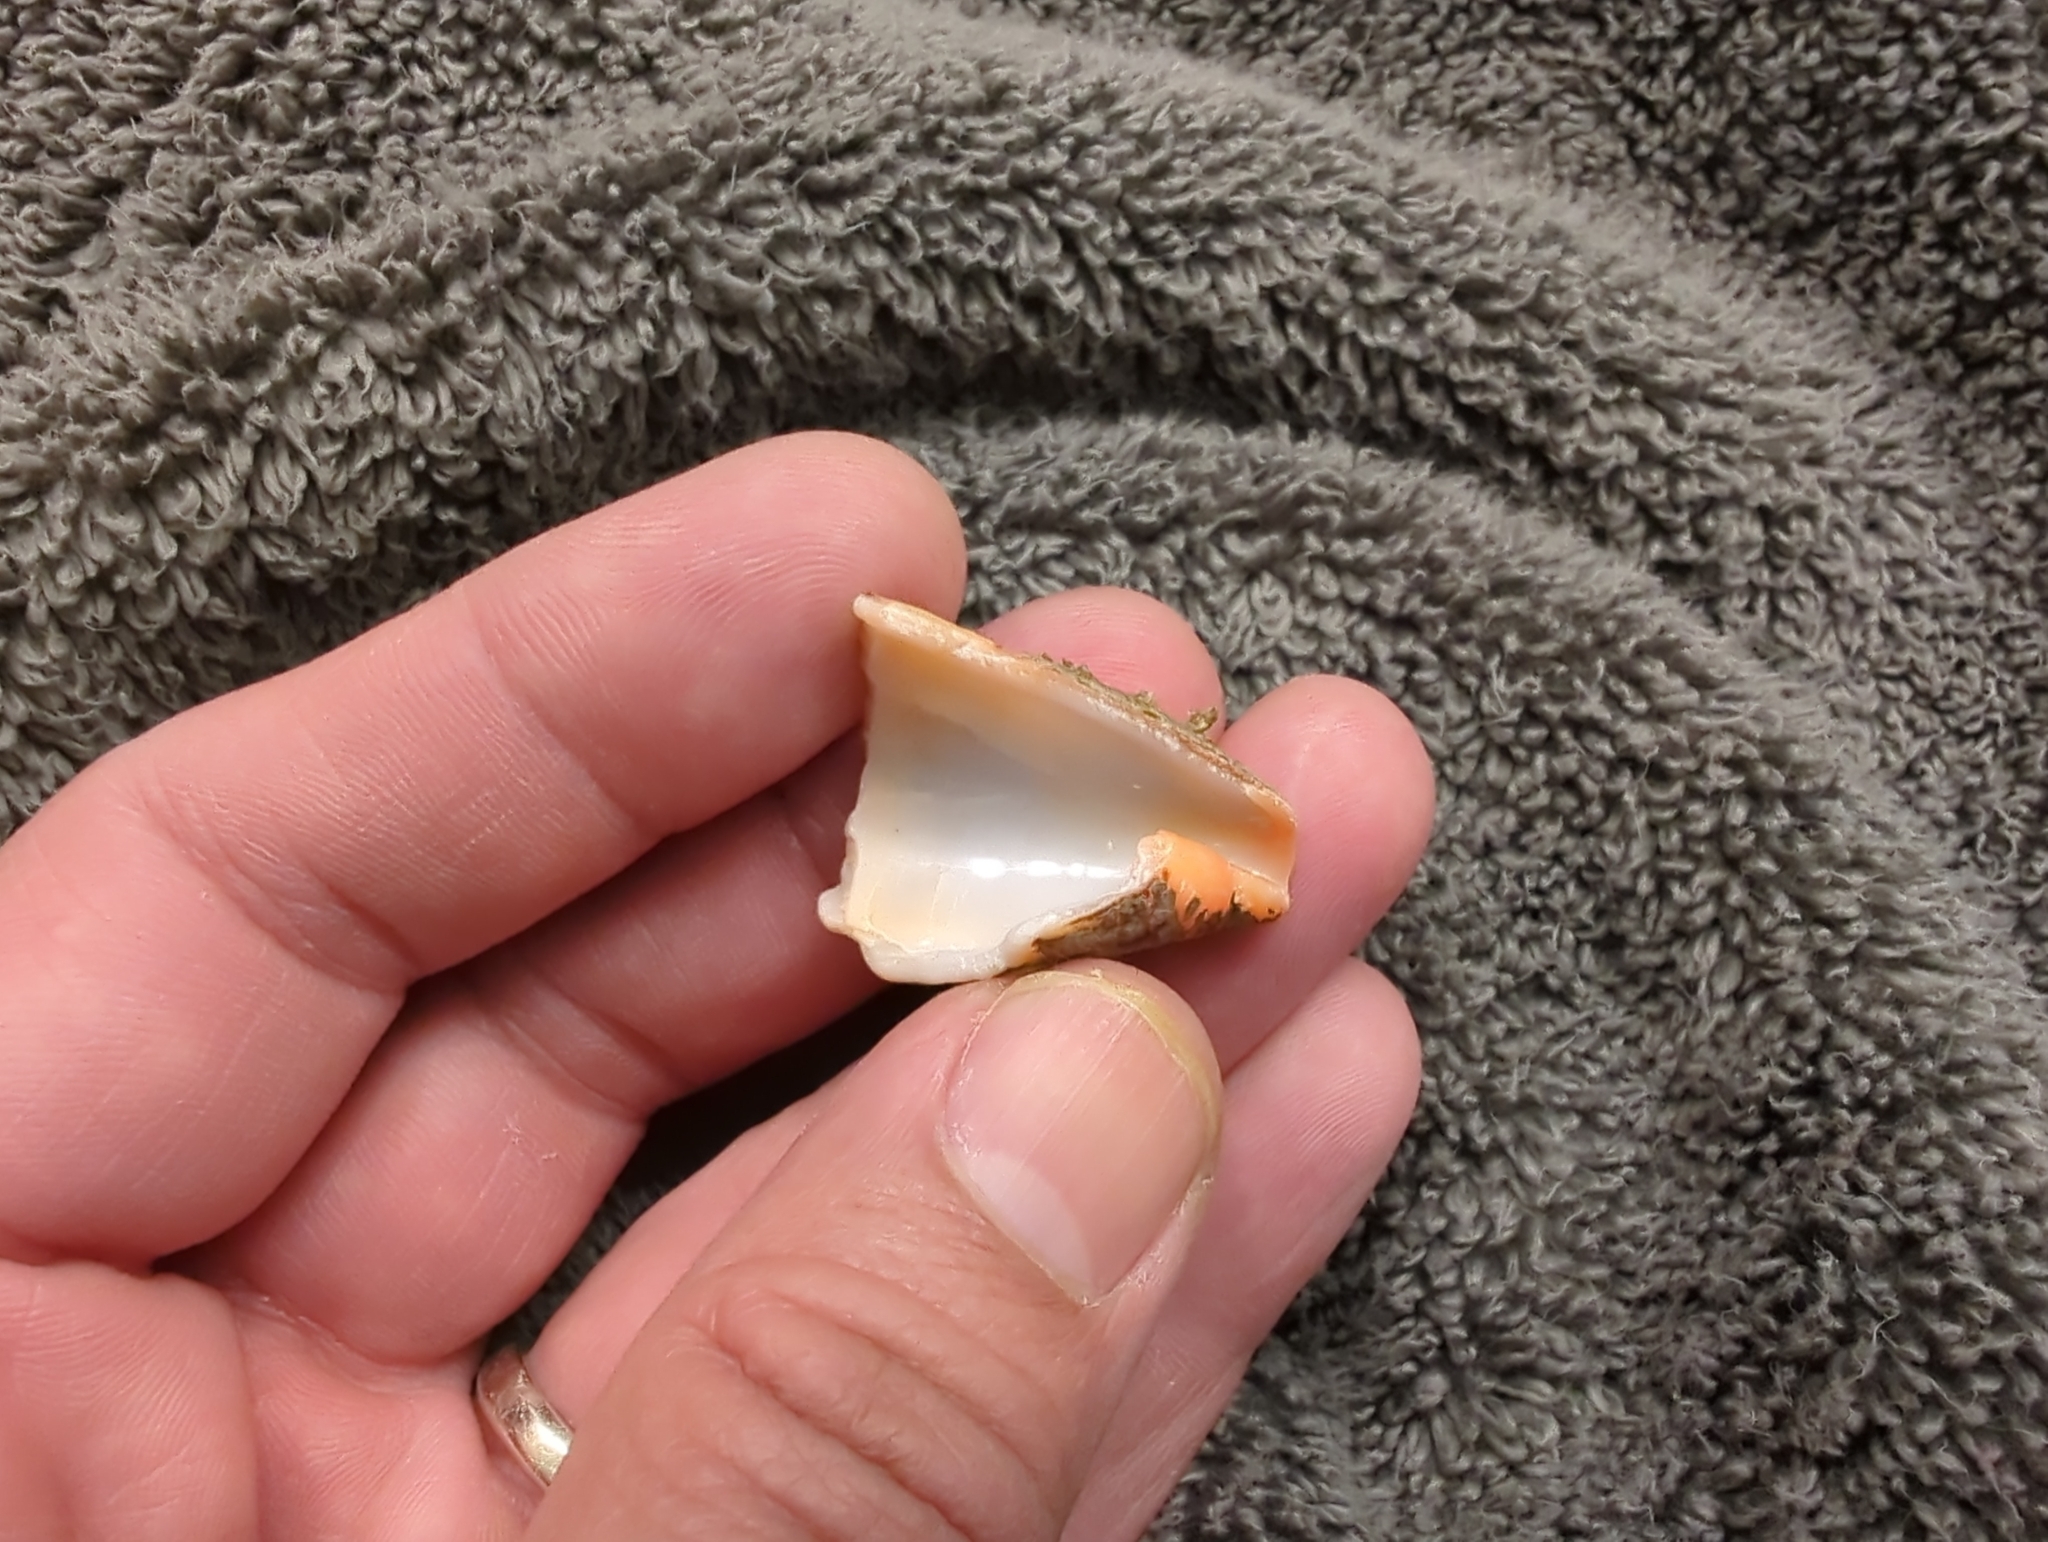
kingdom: Animalia
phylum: Mollusca
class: Gastropoda
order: Neogastropoda
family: Conidae
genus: Conus
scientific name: Conus princeps
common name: Prince cone
